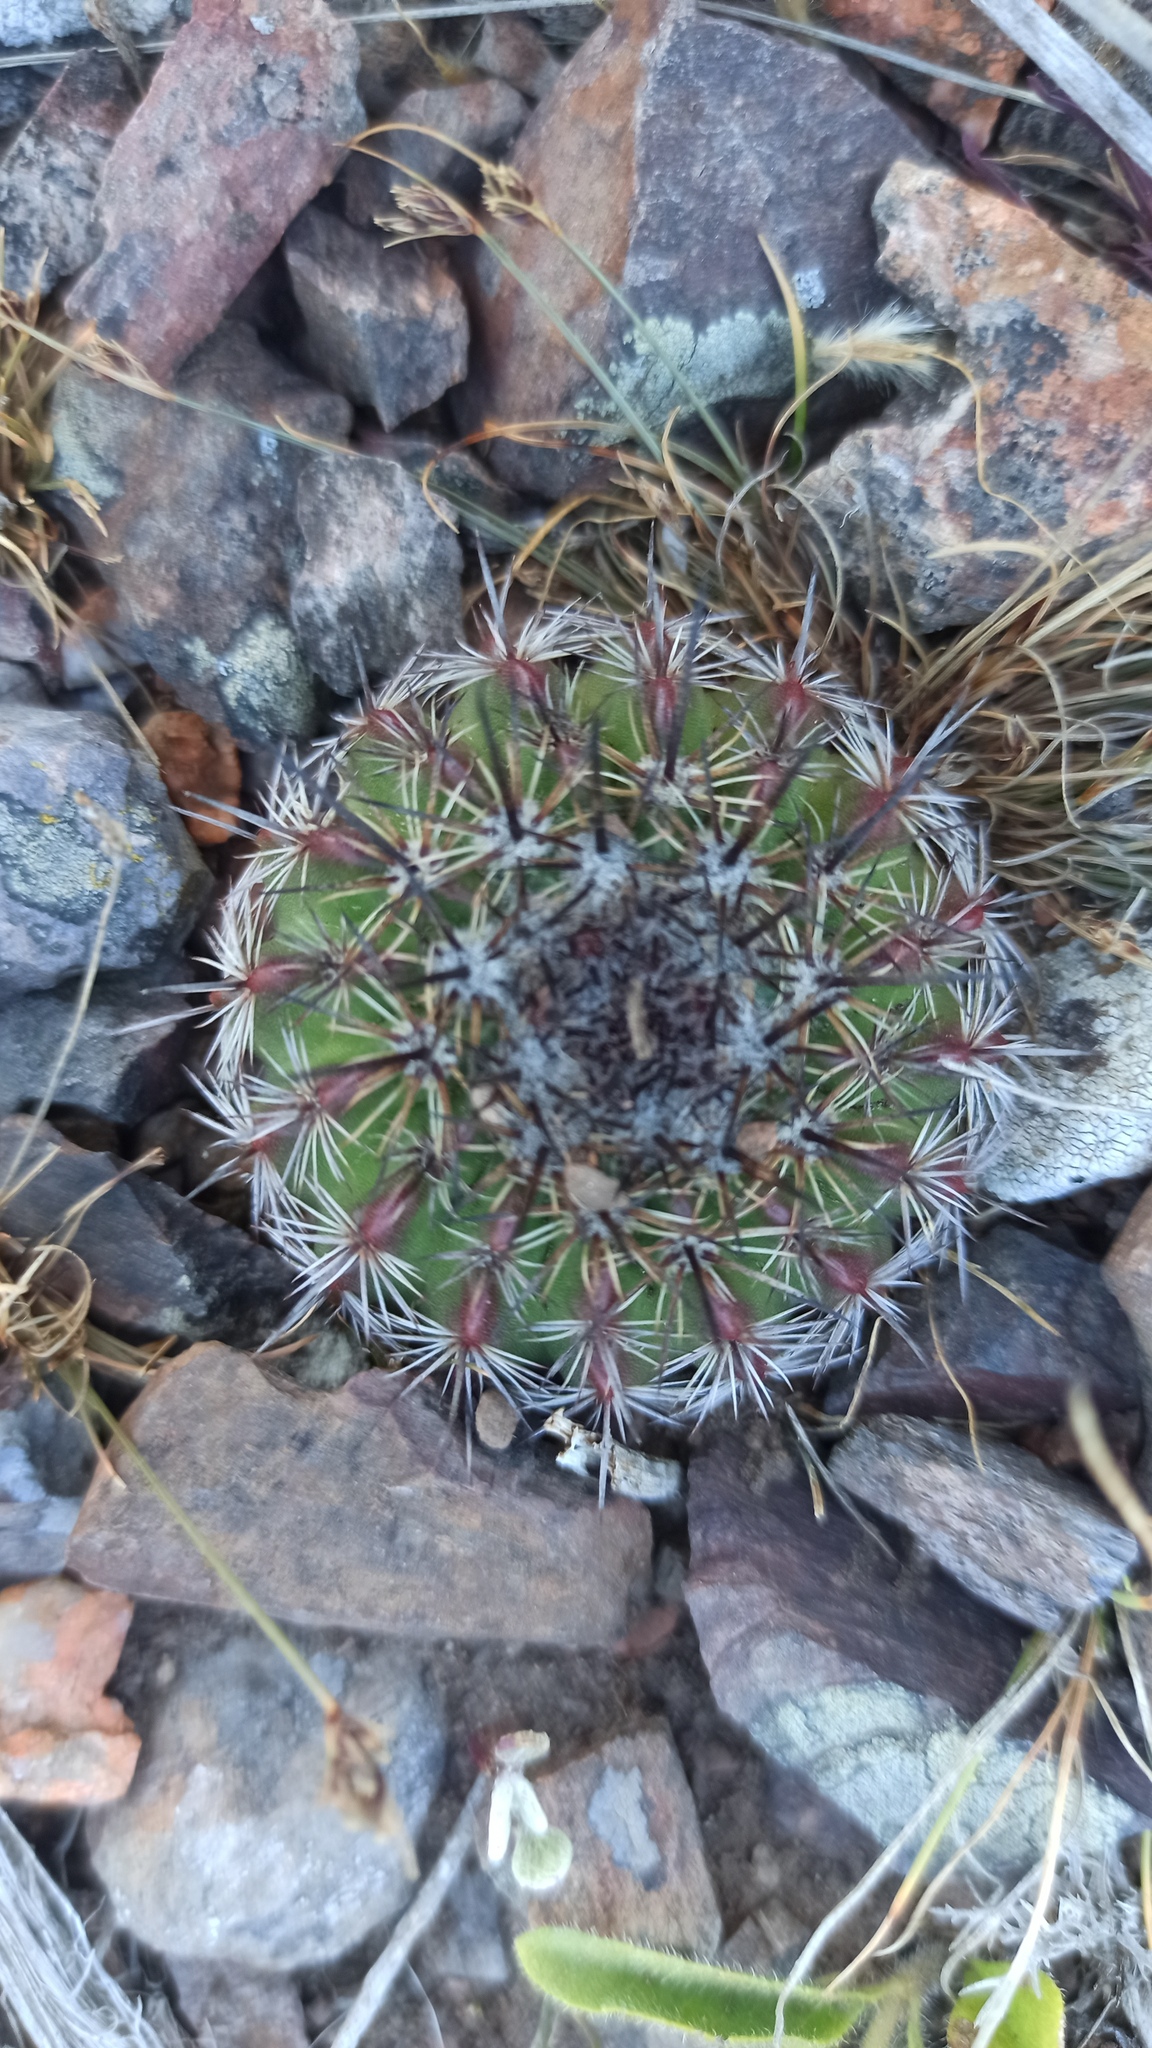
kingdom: Plantae
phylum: Tracheophyta
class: Magnoliopsida
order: Caryophyllales
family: Cactaceae
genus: Parodia
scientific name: Parodia mammulosa
